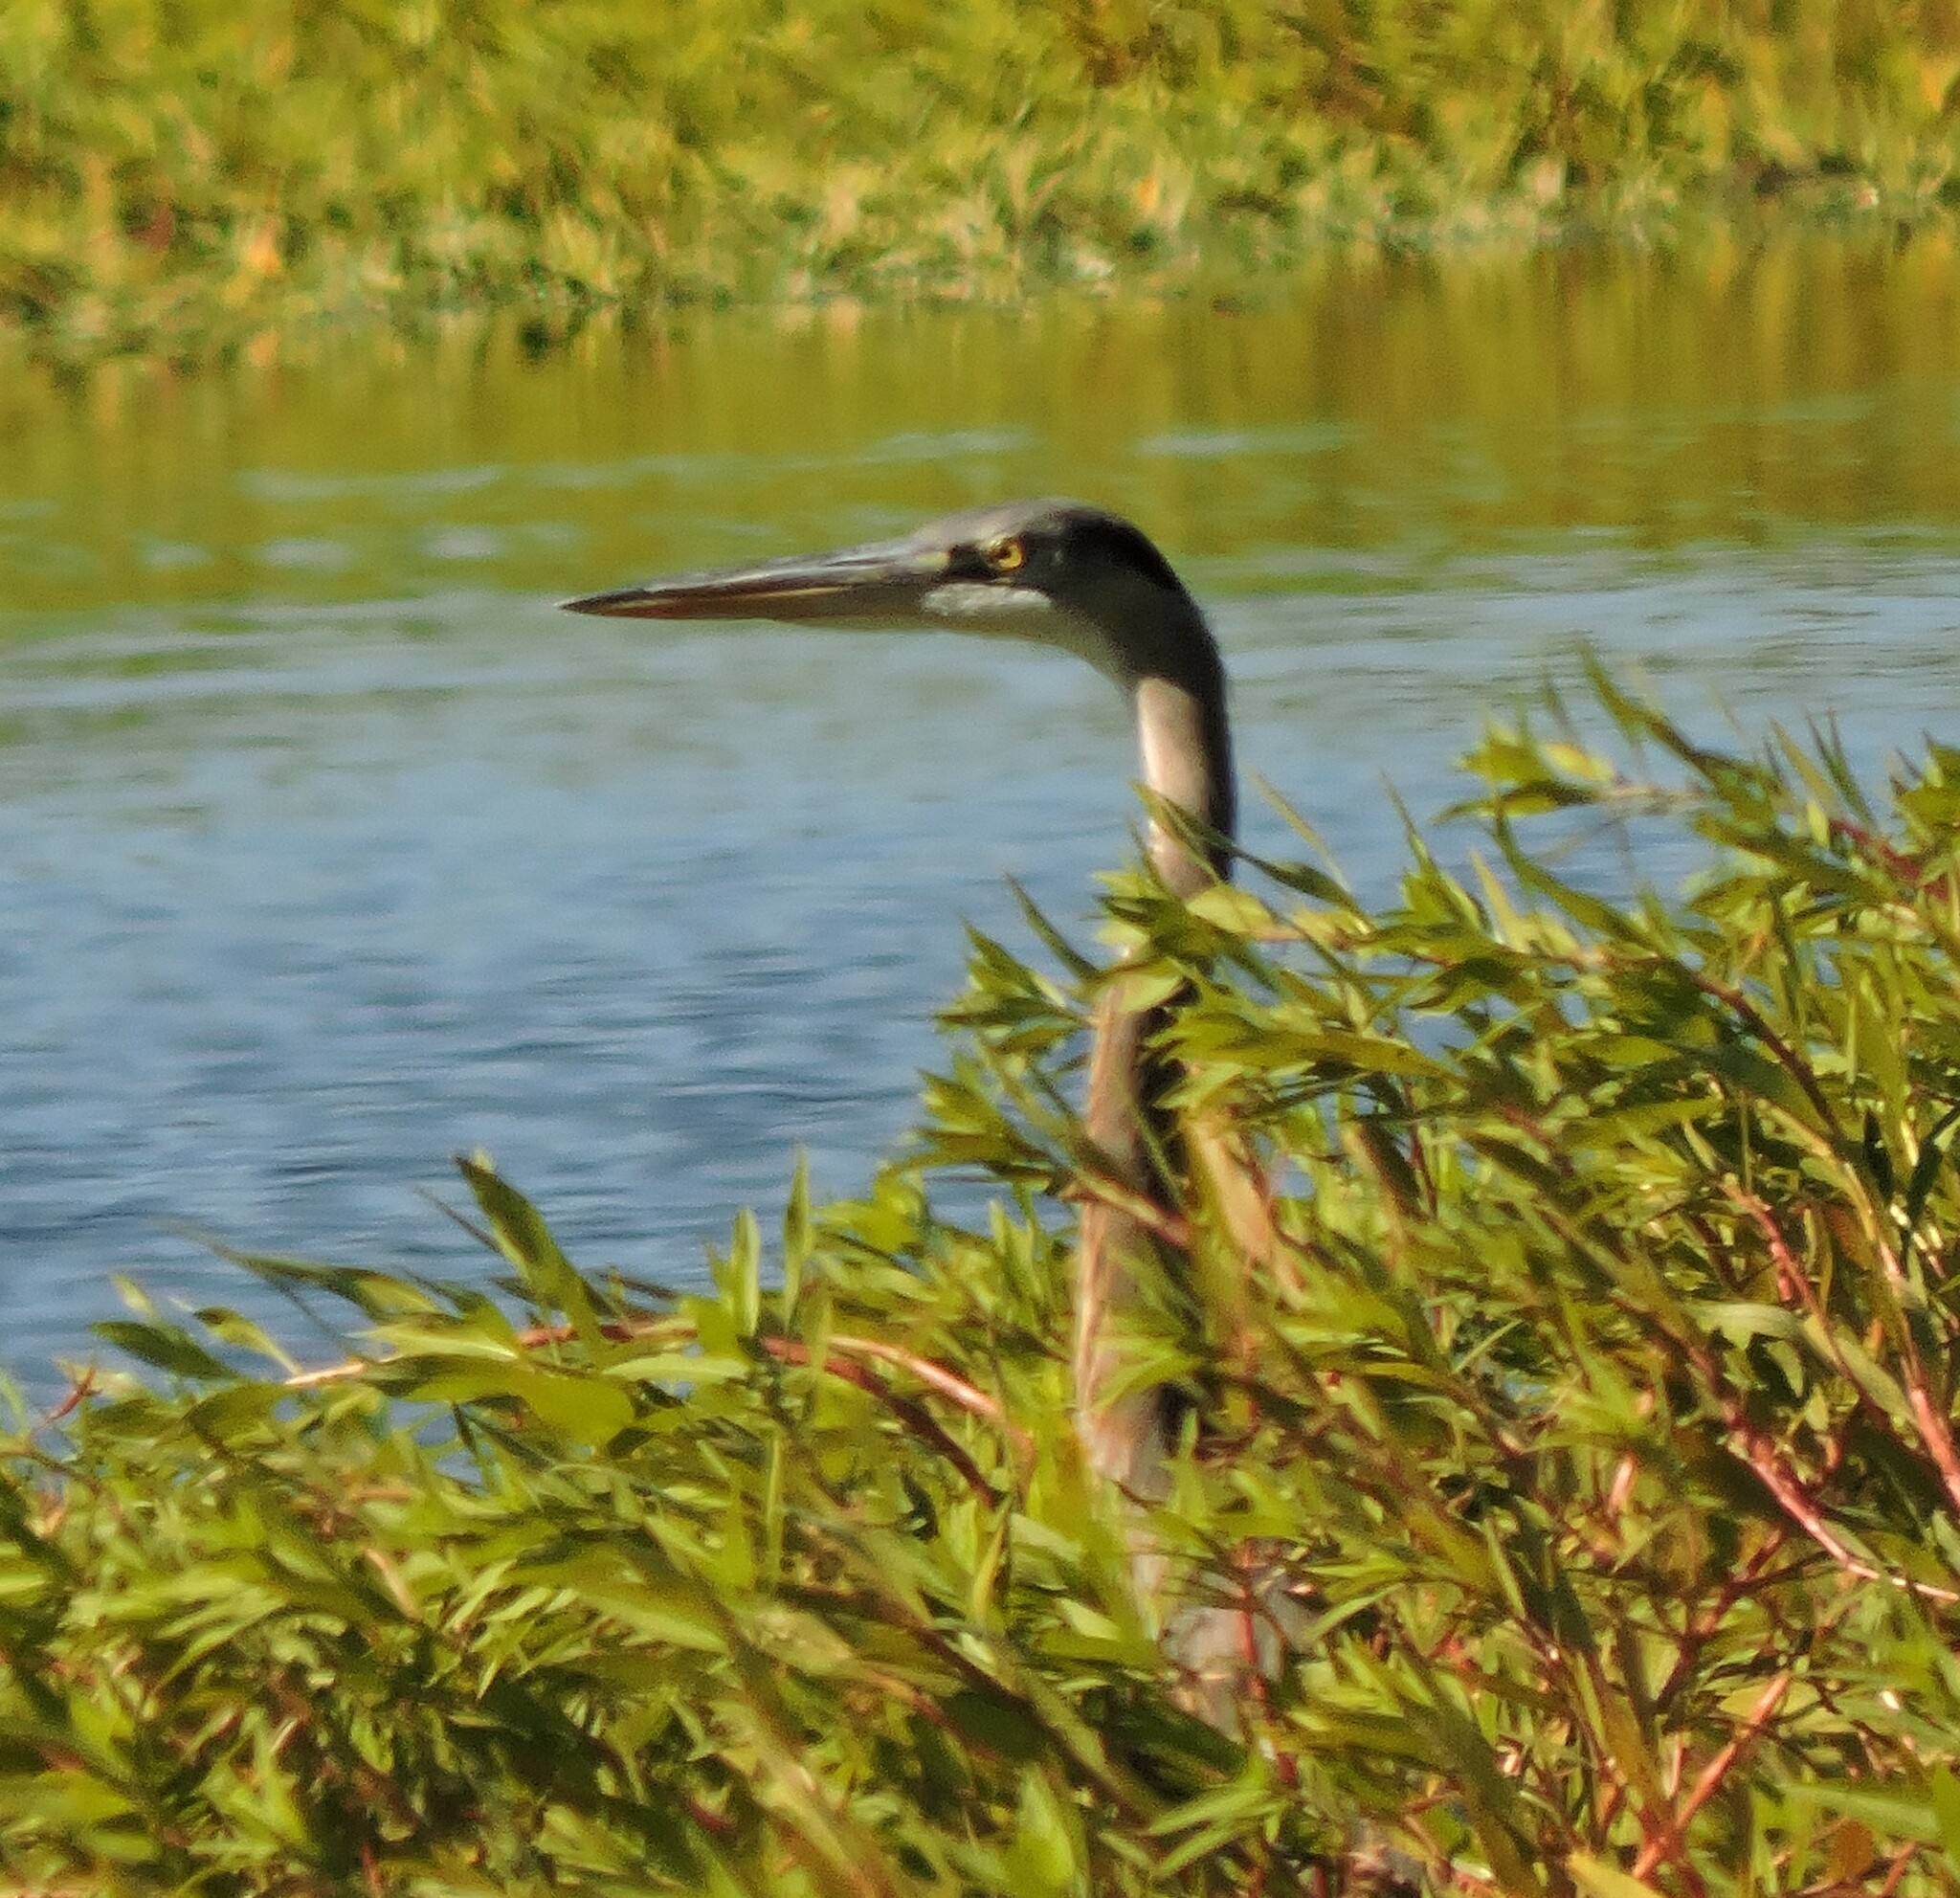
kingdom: Animalia
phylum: Chordata
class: Aves
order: Pelecaniformes
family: Ardeidae
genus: Ardea
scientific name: Ardea herodias
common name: Great blue heron
